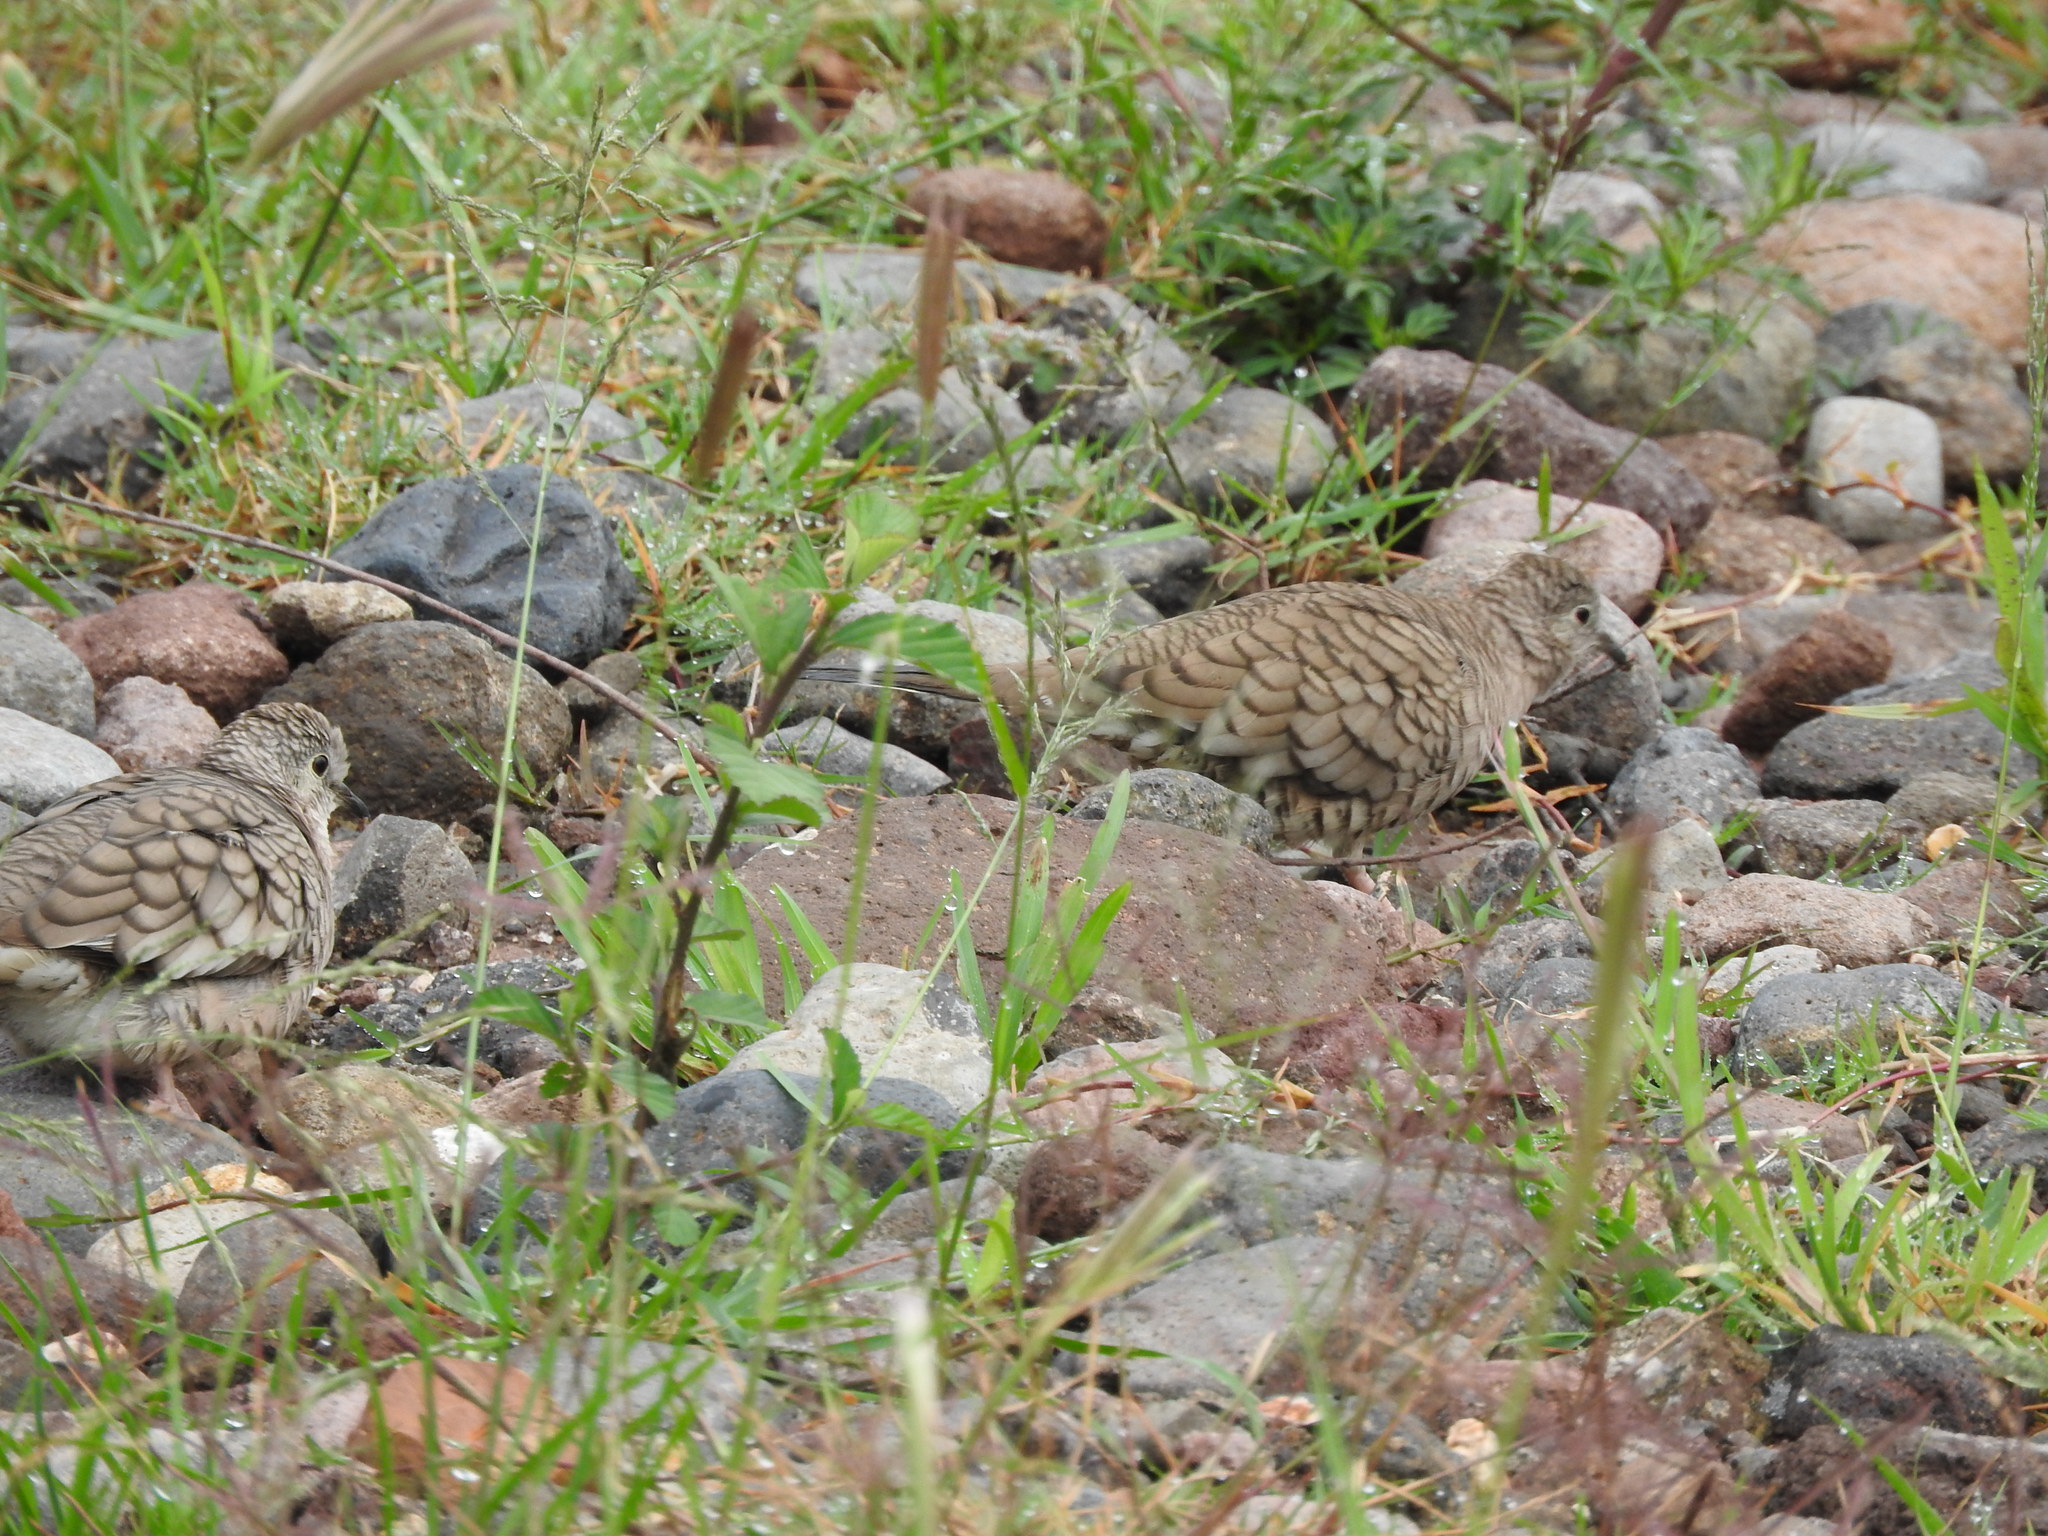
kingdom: Animalia
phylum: Chordata
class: Aves
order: Columbiformes
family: Columbidae
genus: Columbina
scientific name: Columbina inca
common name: Inca dove
